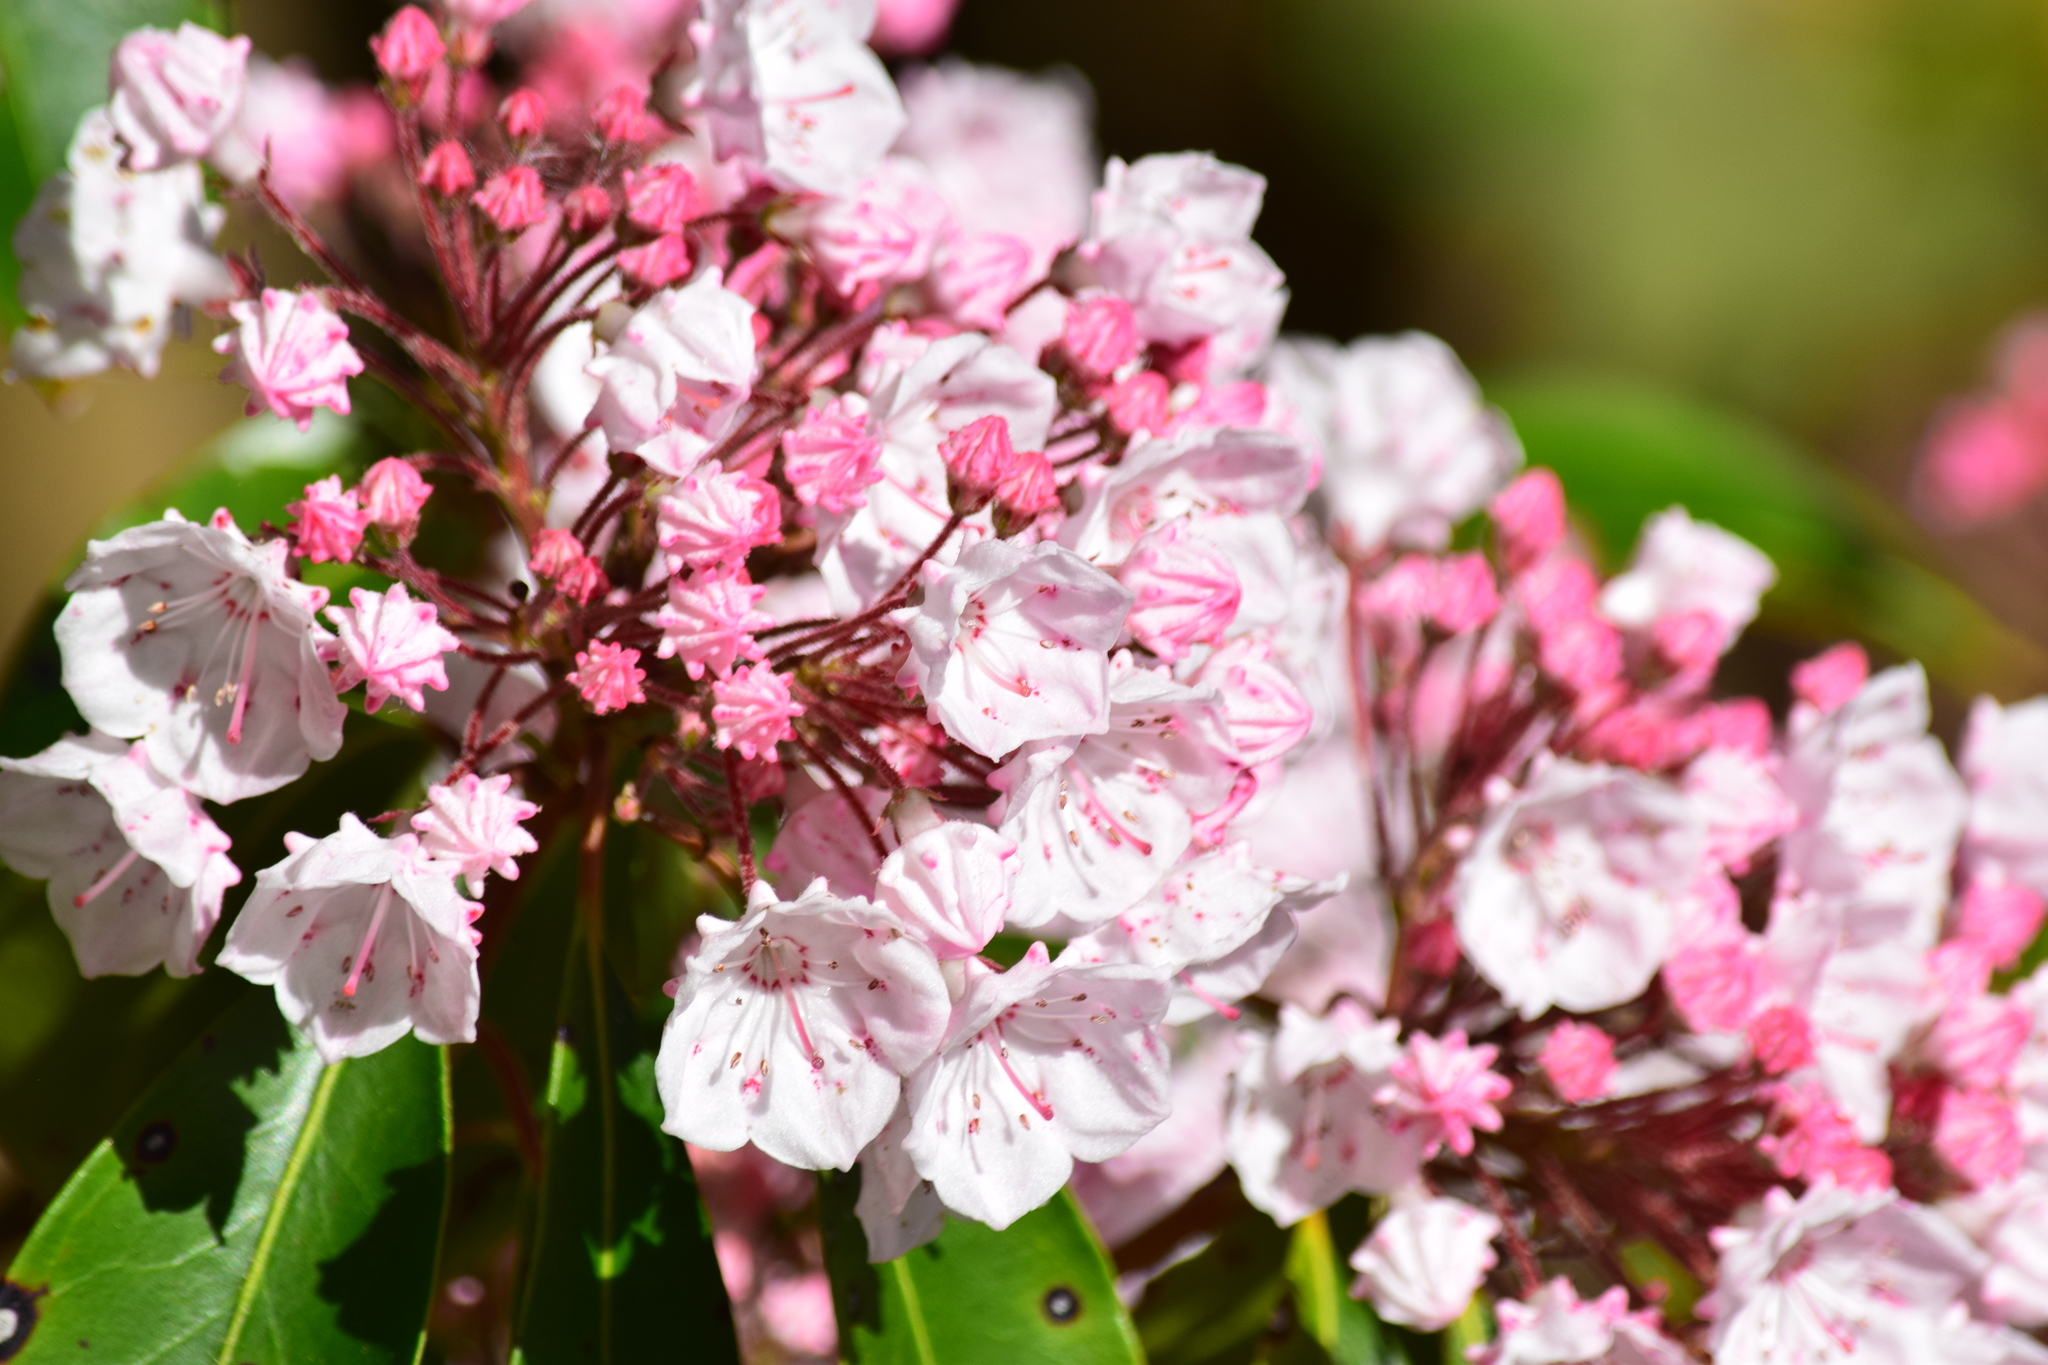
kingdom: Plantae
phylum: Tracheophyta
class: Magnoliopsida
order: Ericales
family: Ericaceae
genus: Kalmia
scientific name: Kalmia latifolia
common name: Mountain-laurel
